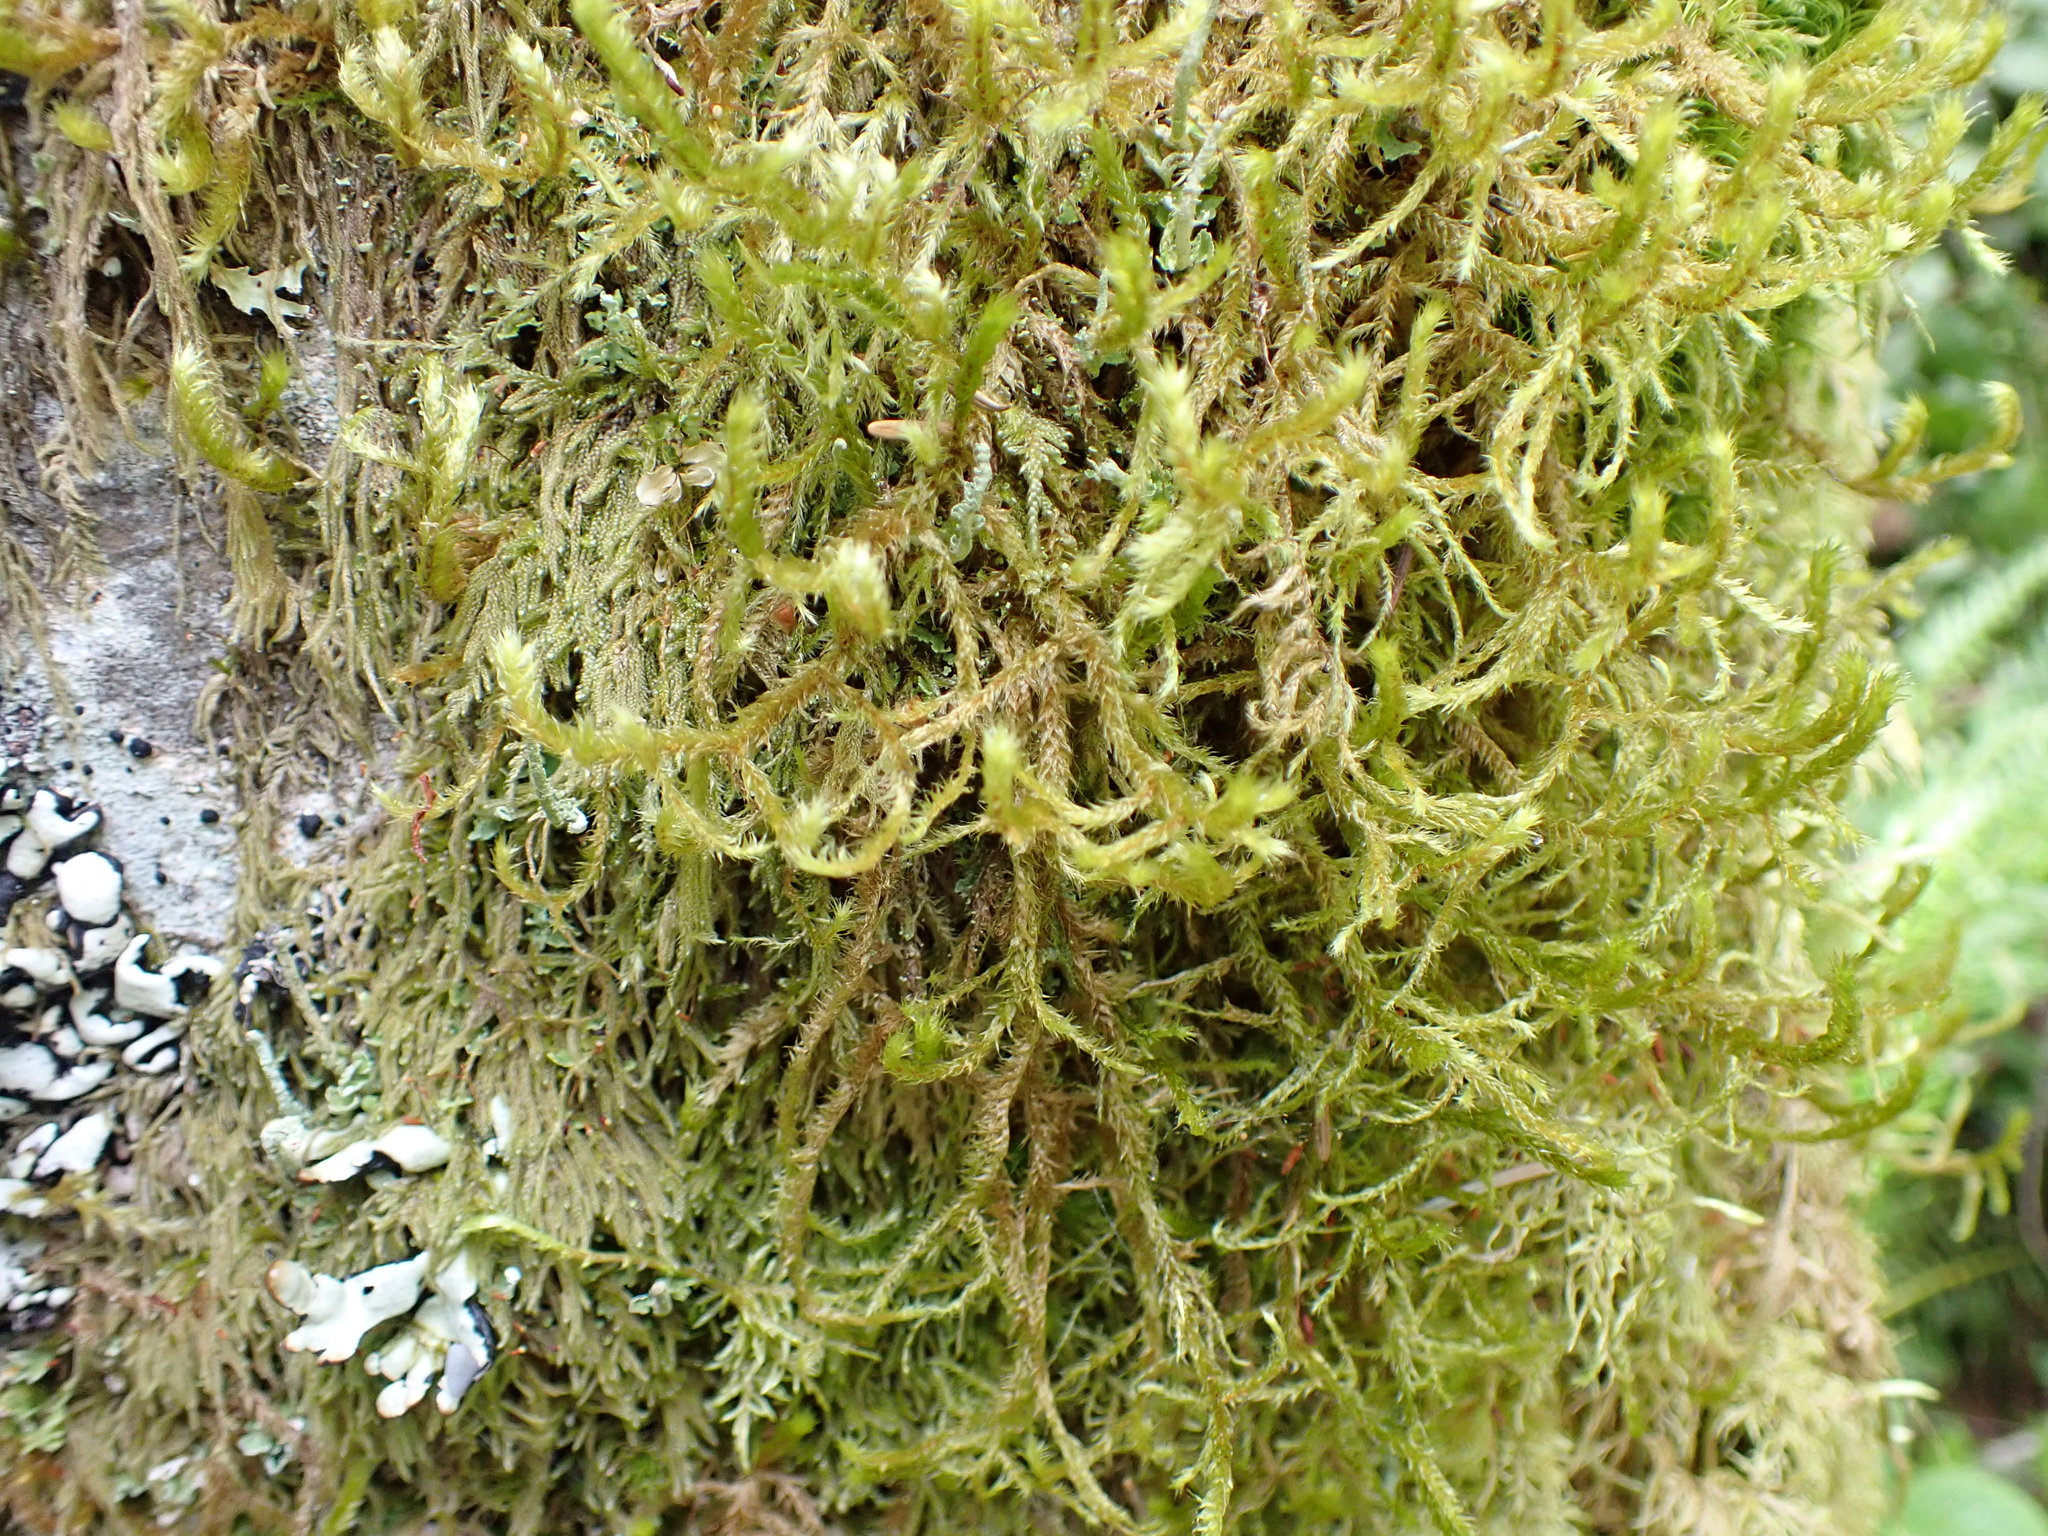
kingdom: Plantae
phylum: Bryophyta
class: Bryopsida
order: Hypnales
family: Antitrichiaceae
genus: Antitrichia
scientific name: Antitrichia curtipendula
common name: Pendulous wing-moss
